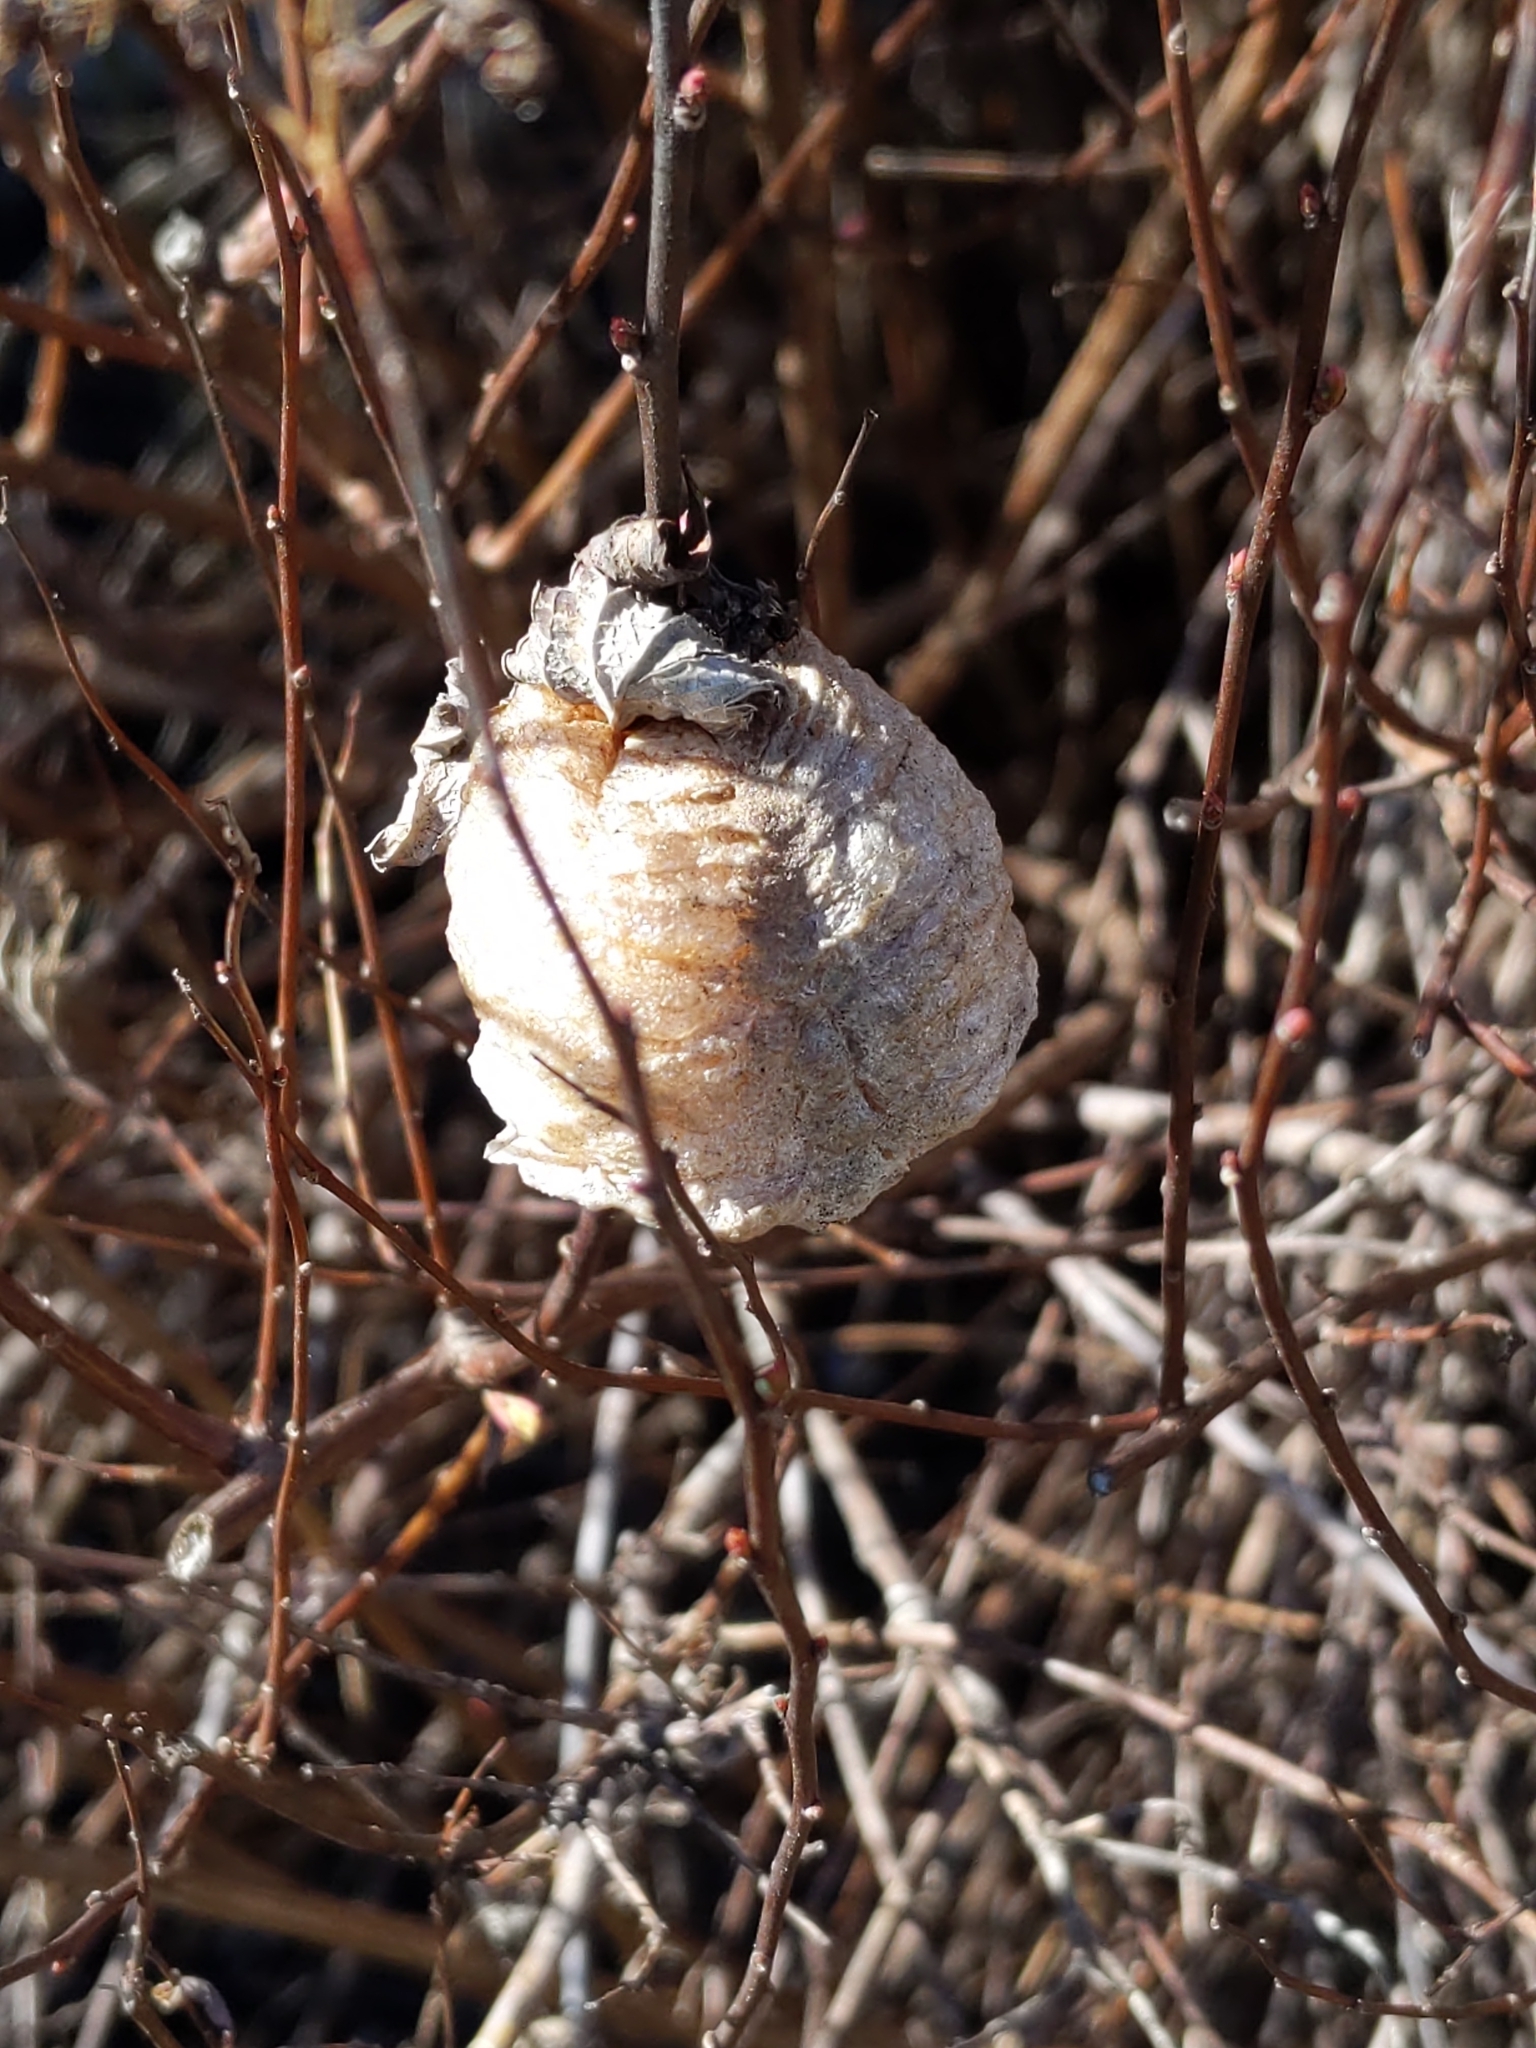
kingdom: Animalia
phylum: Arthropoda
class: Insecta
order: Mantodea
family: Mantidae
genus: Tenodera
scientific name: Tenodera sinensis
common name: Chinese mantis
